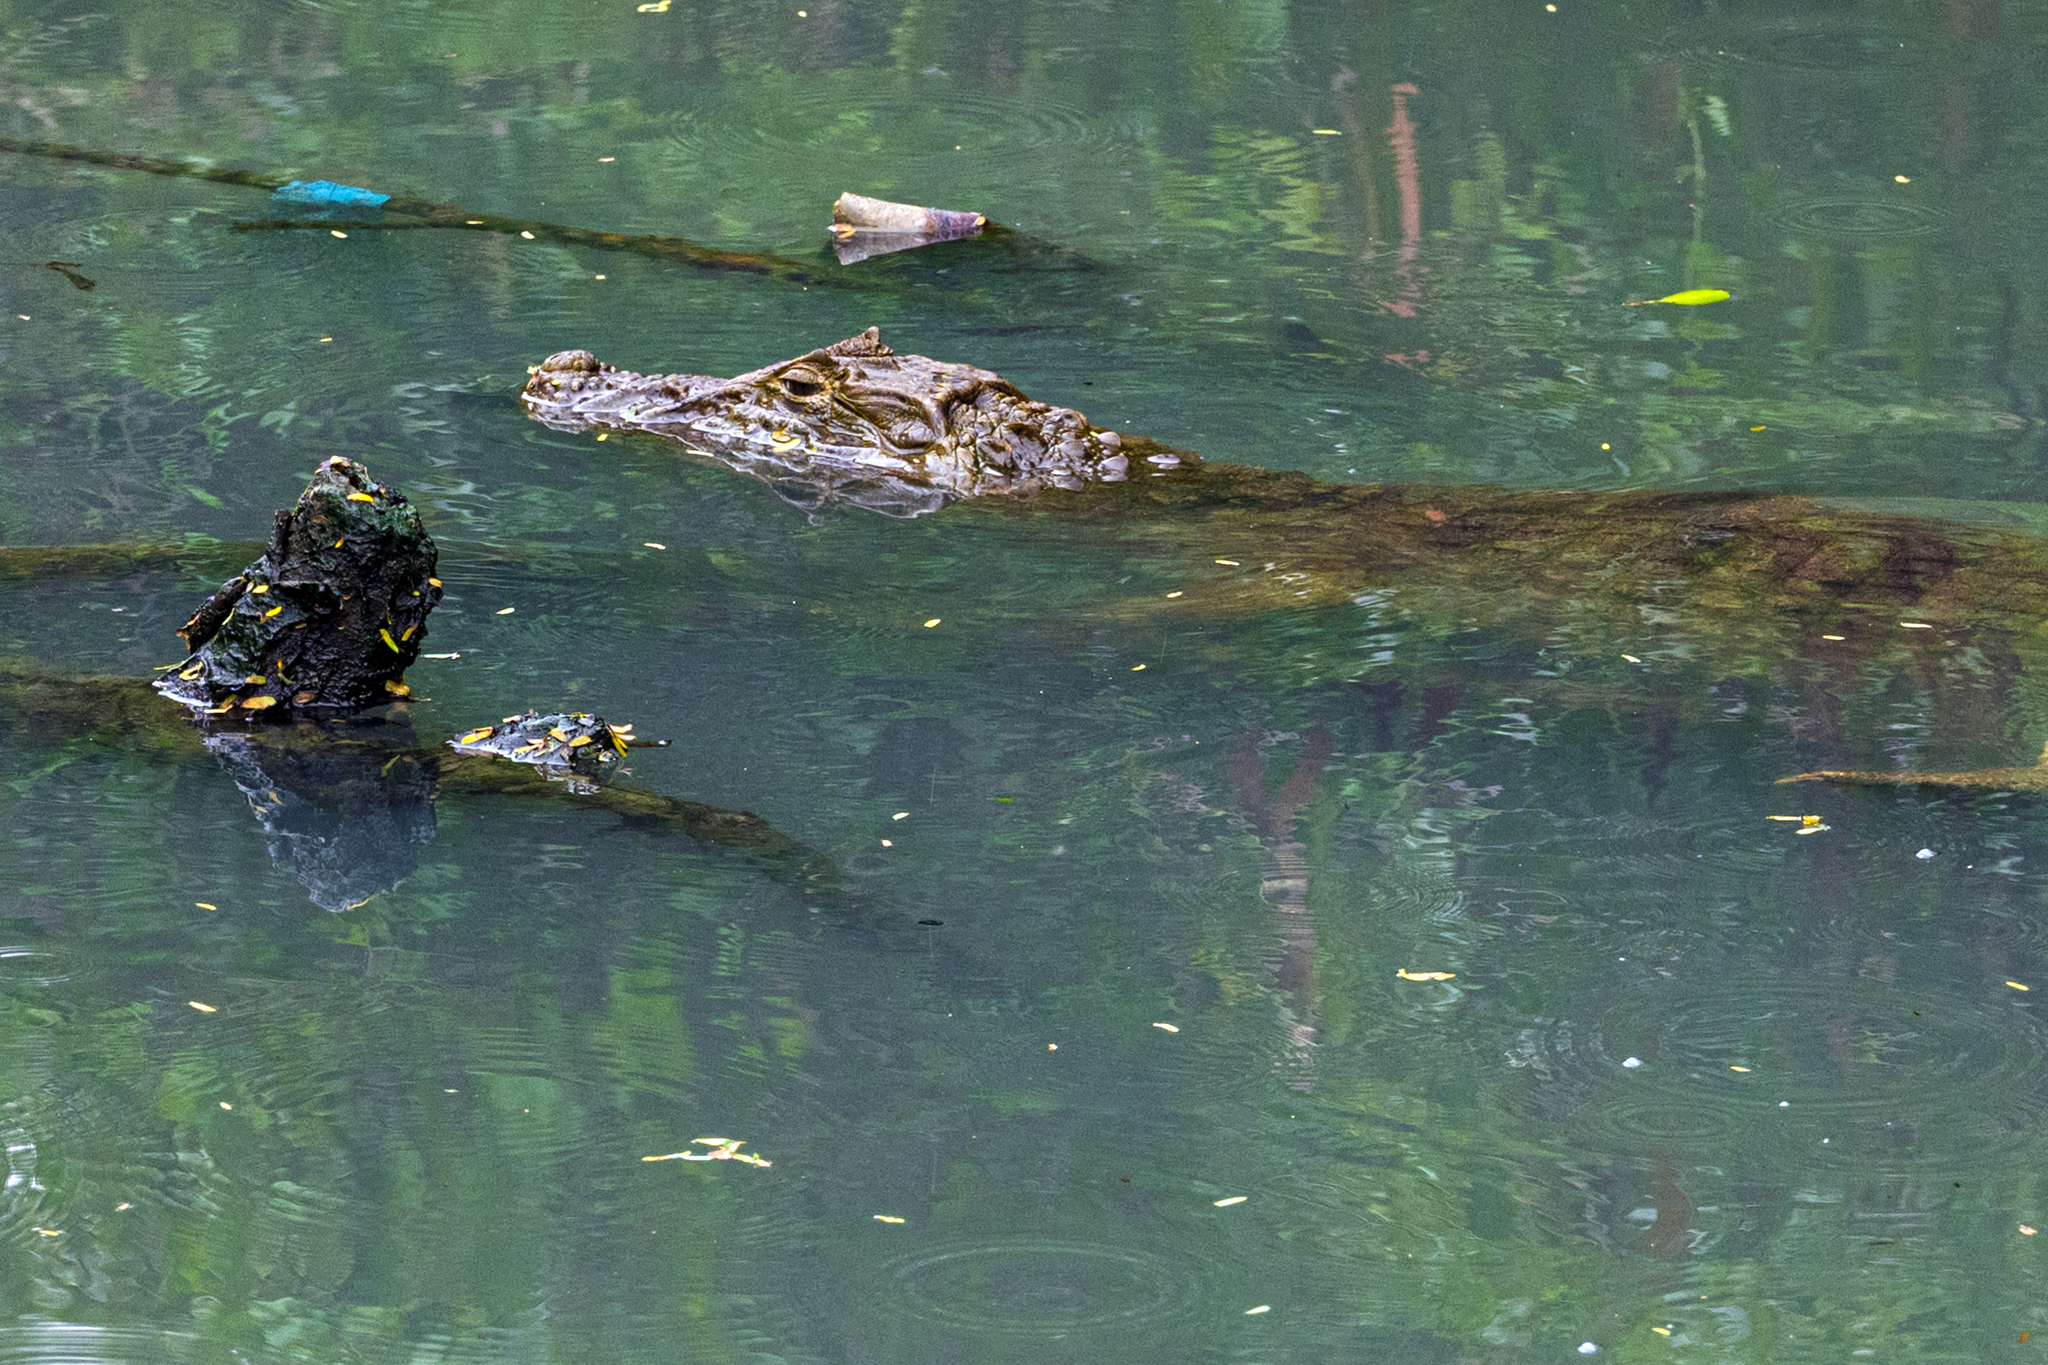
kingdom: Animalia
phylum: Chordata
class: Crocodylia
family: Alligatoridae
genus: Caiman
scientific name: Caiman latirostris
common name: Broad-snouted caiman
